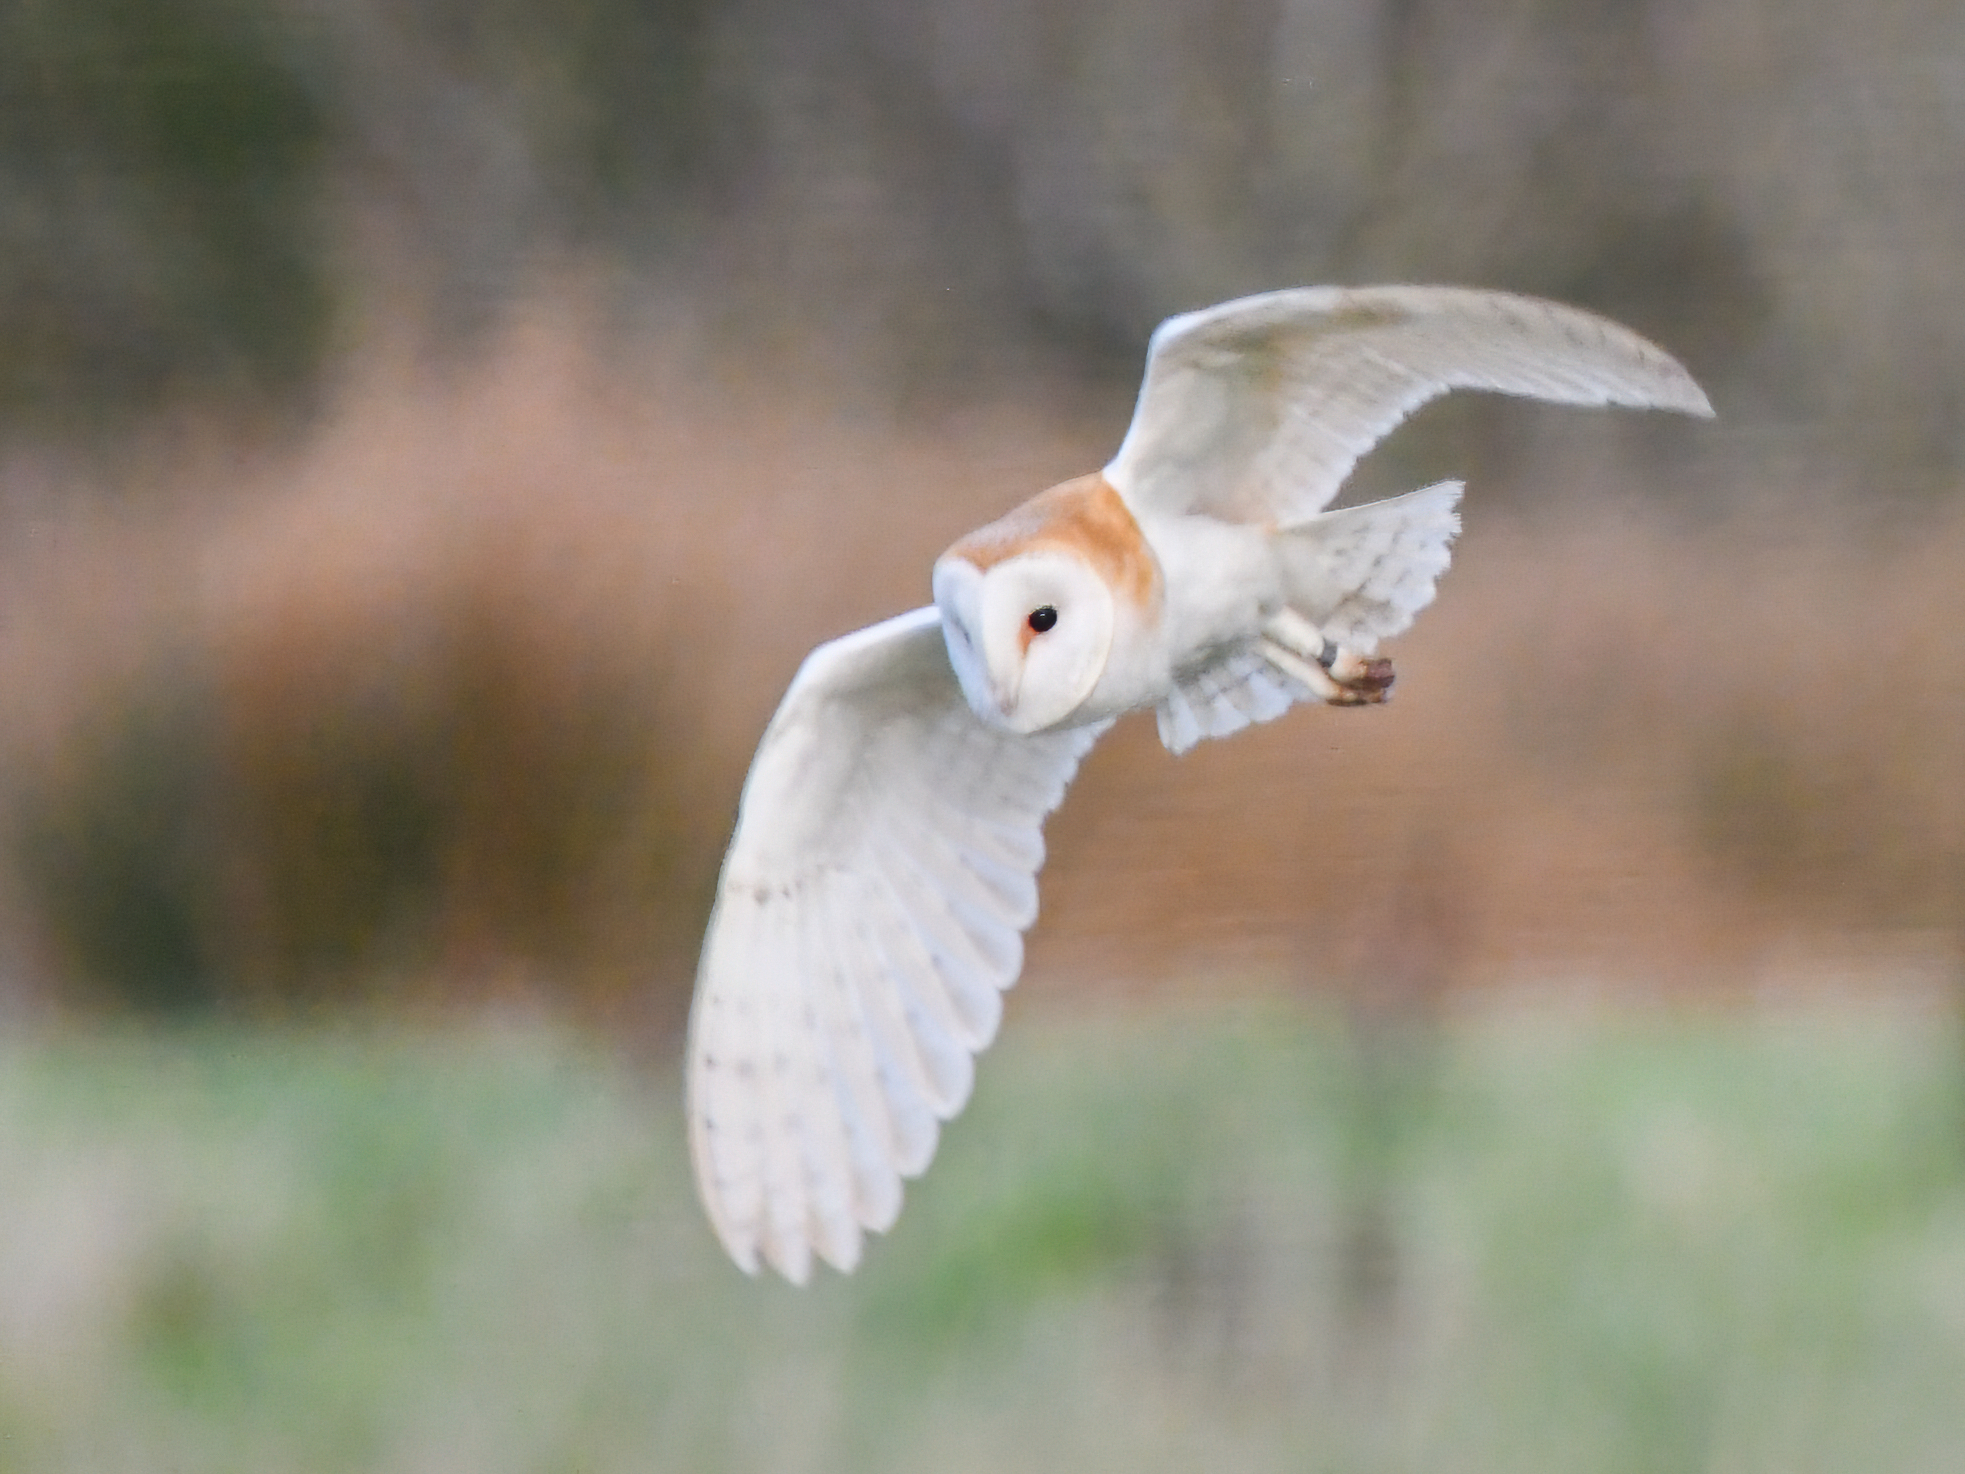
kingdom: Animalia
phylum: Chordata
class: Aves
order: Strigiformes
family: Tytonidae
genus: Tyto
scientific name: Tyto alba
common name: Barn owl
